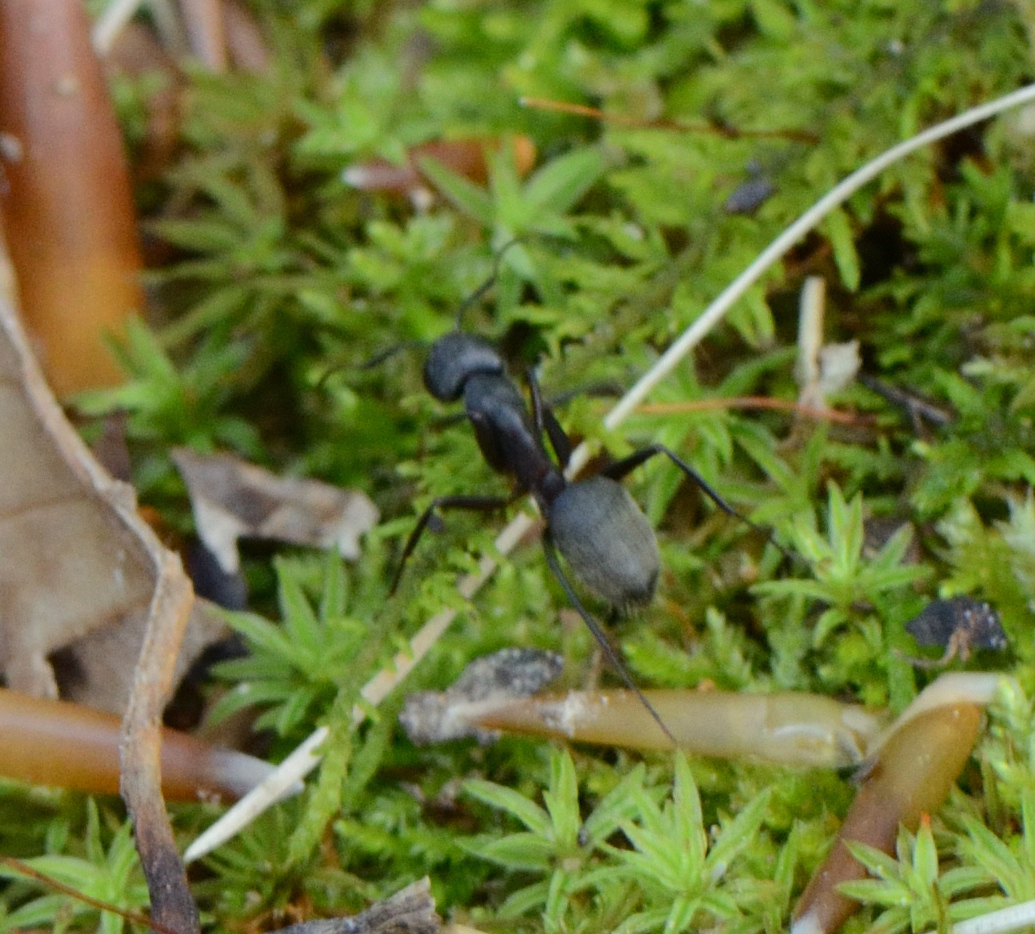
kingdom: Animalia
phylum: Arthropoda
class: Insecta
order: Hymenoptera
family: Formicidae
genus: Camponotus
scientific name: Camponotus pennsylvanicus
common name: Black carpenter ant
